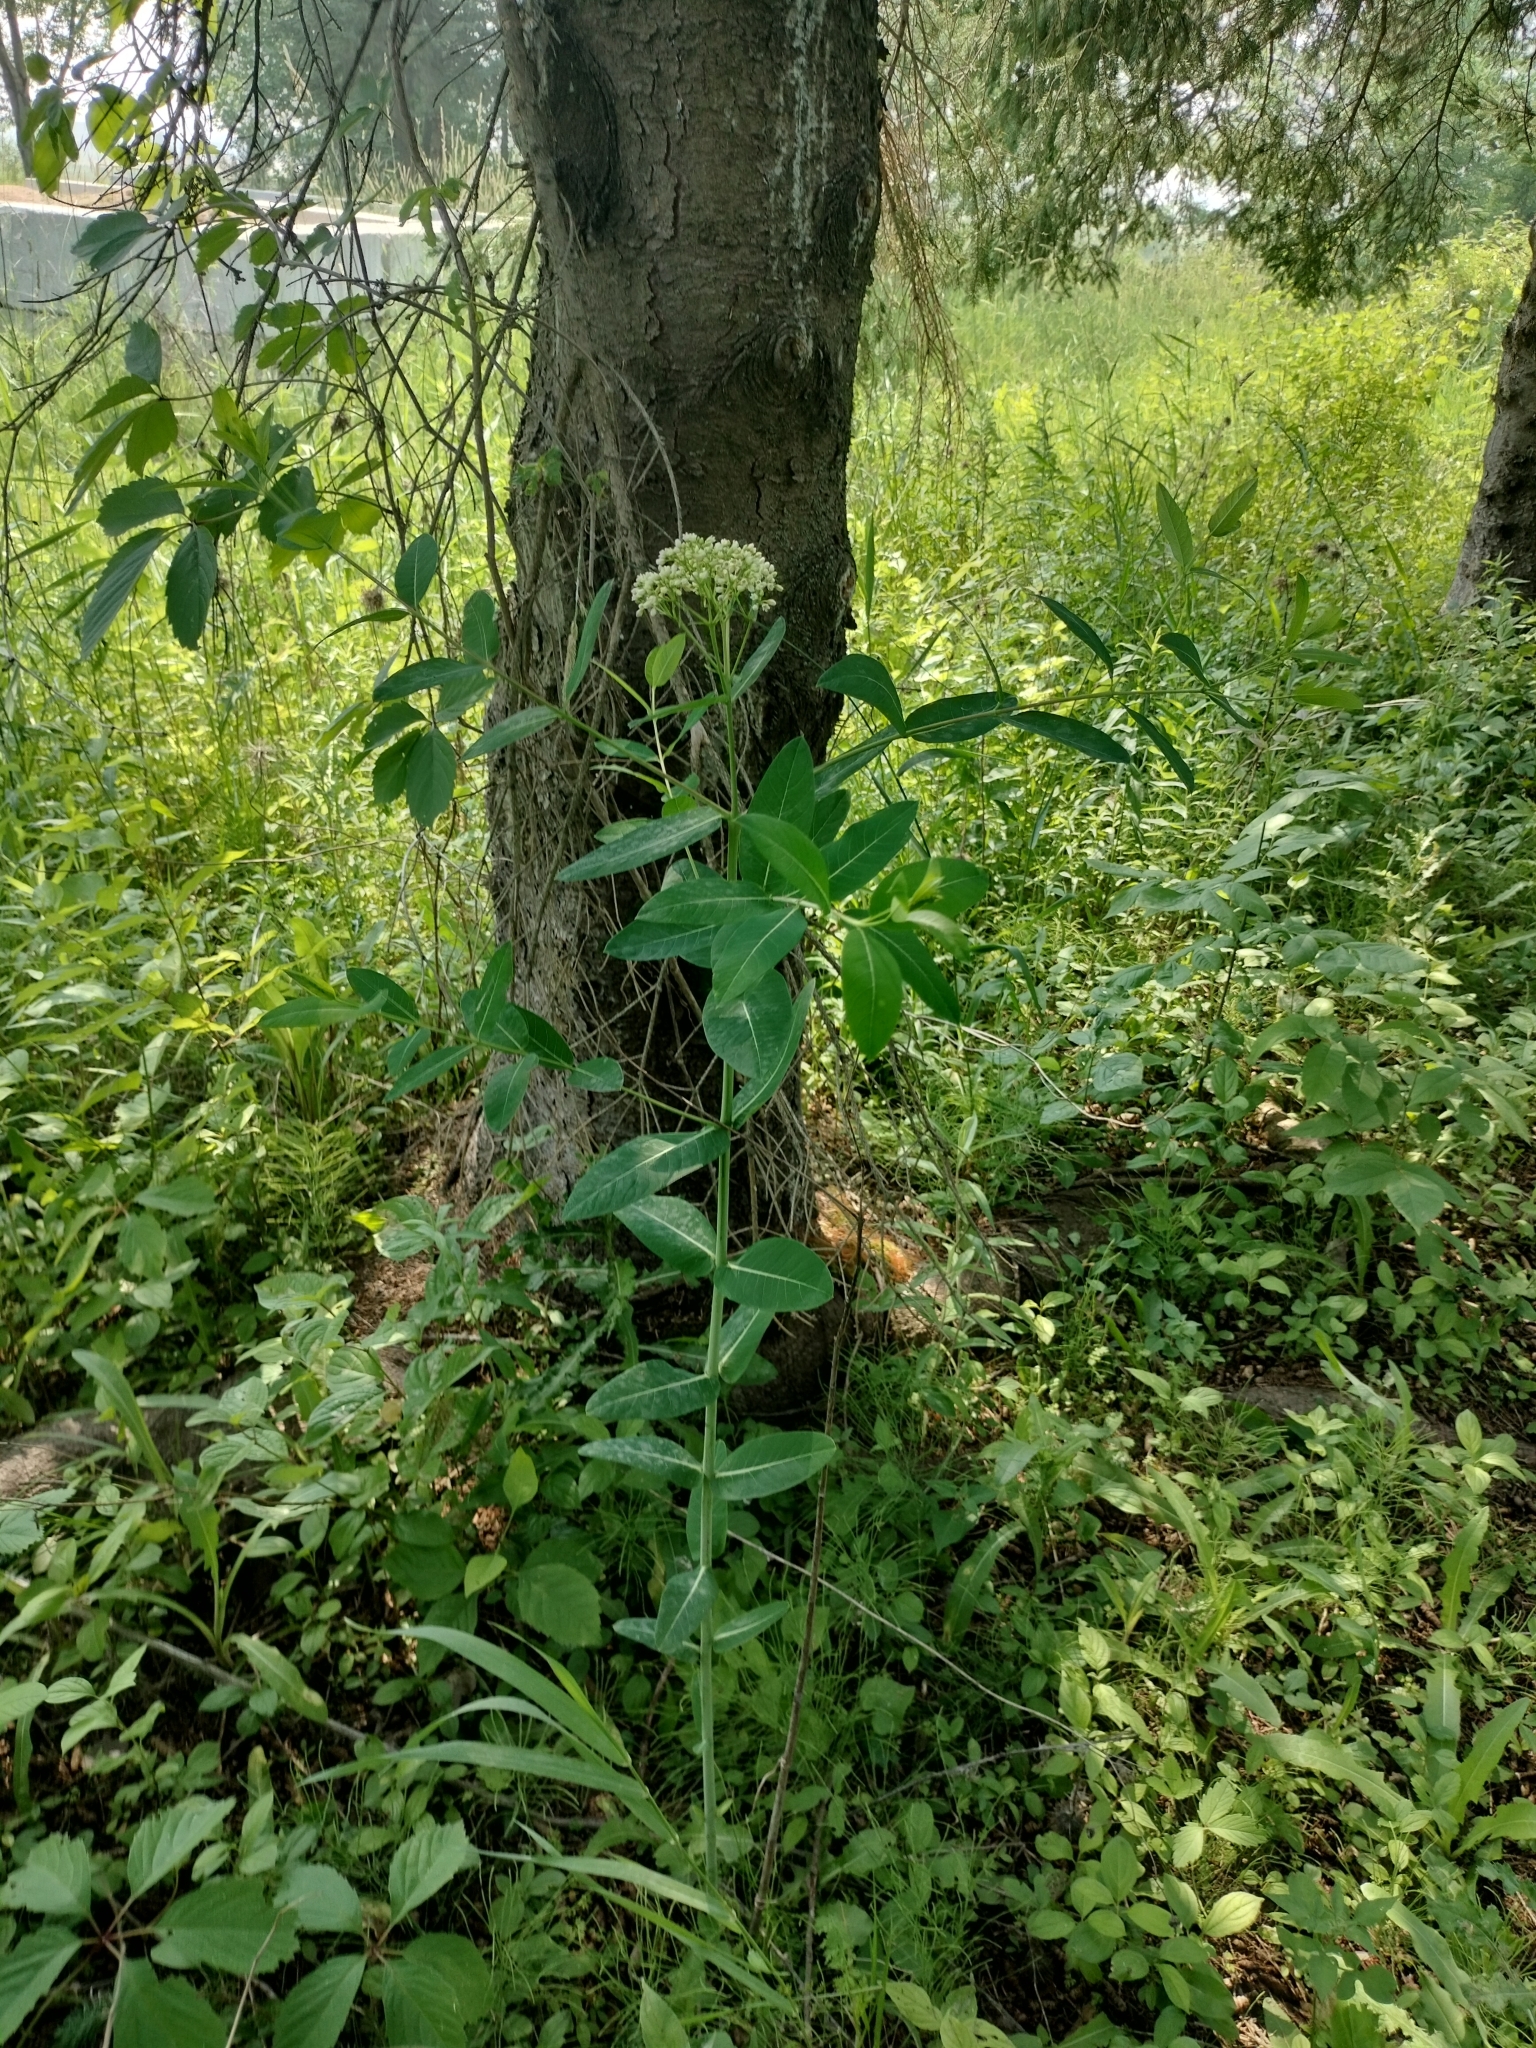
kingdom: Plantae
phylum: Tracheophyta
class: Magnoliopsida
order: Gentianales
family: Apocynaceae
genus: Apocynum
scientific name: Apocynum cannabinum
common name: Hemp dogbane
